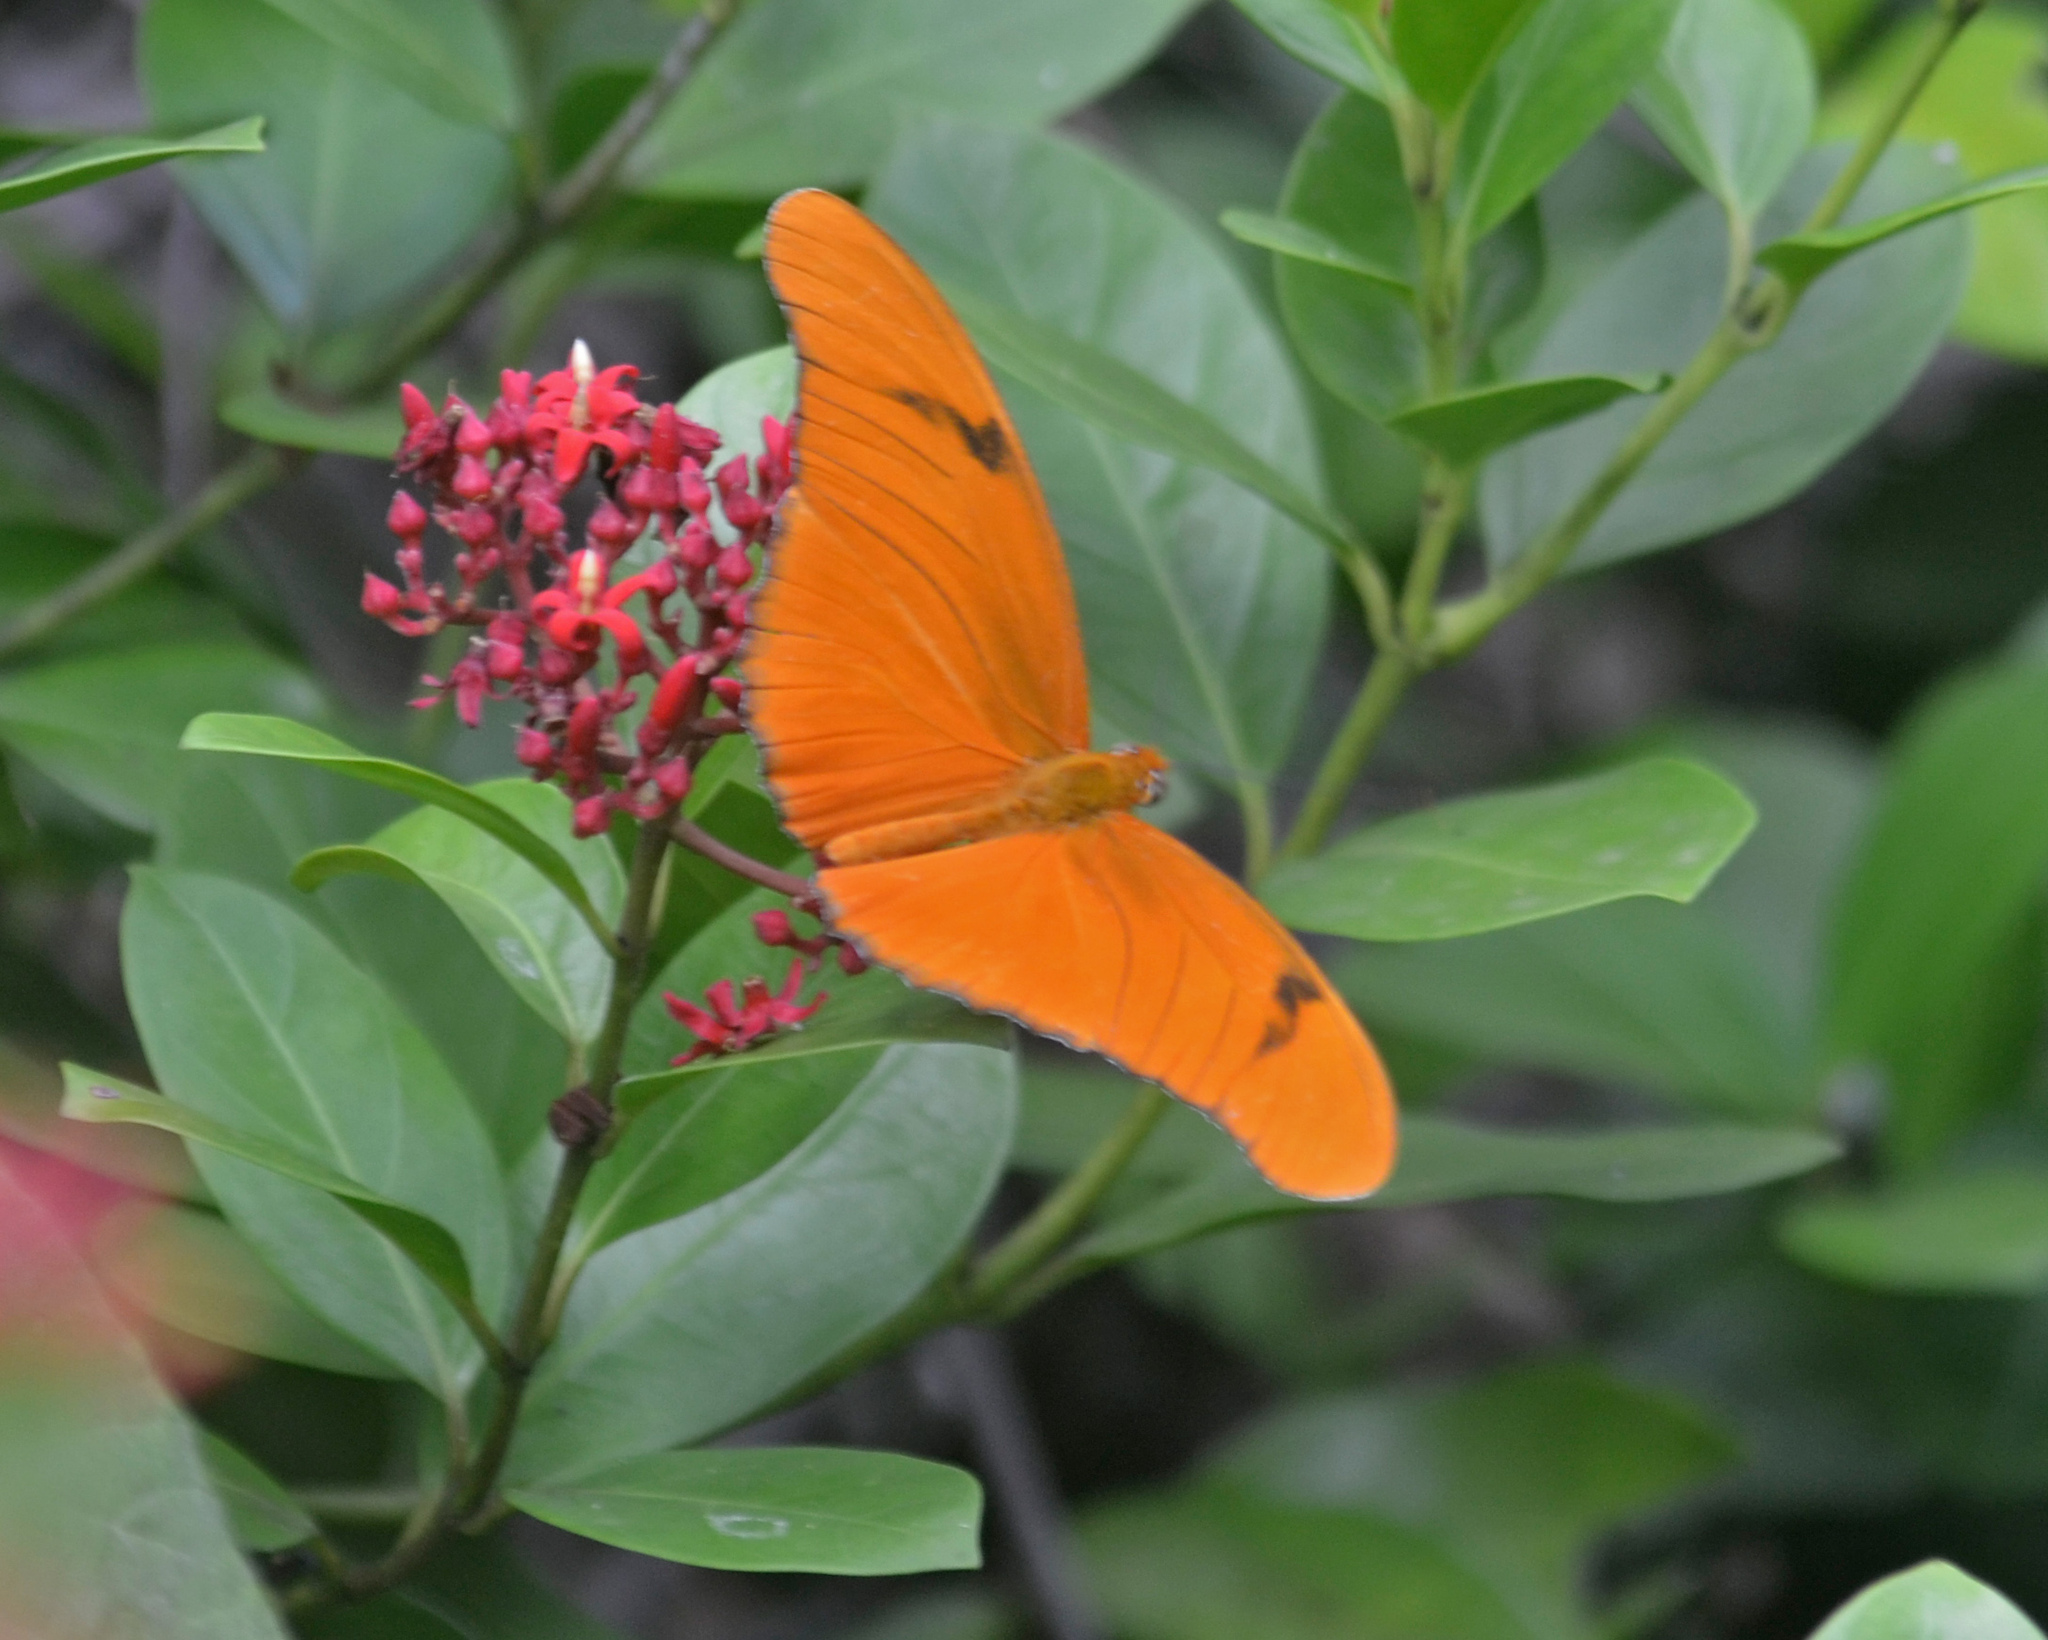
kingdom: Animalia
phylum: Arthropoda
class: Insecta
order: Lepidoptera
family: Nymphalidae
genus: Dryas
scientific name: Dryas iulia
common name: Flambeau
